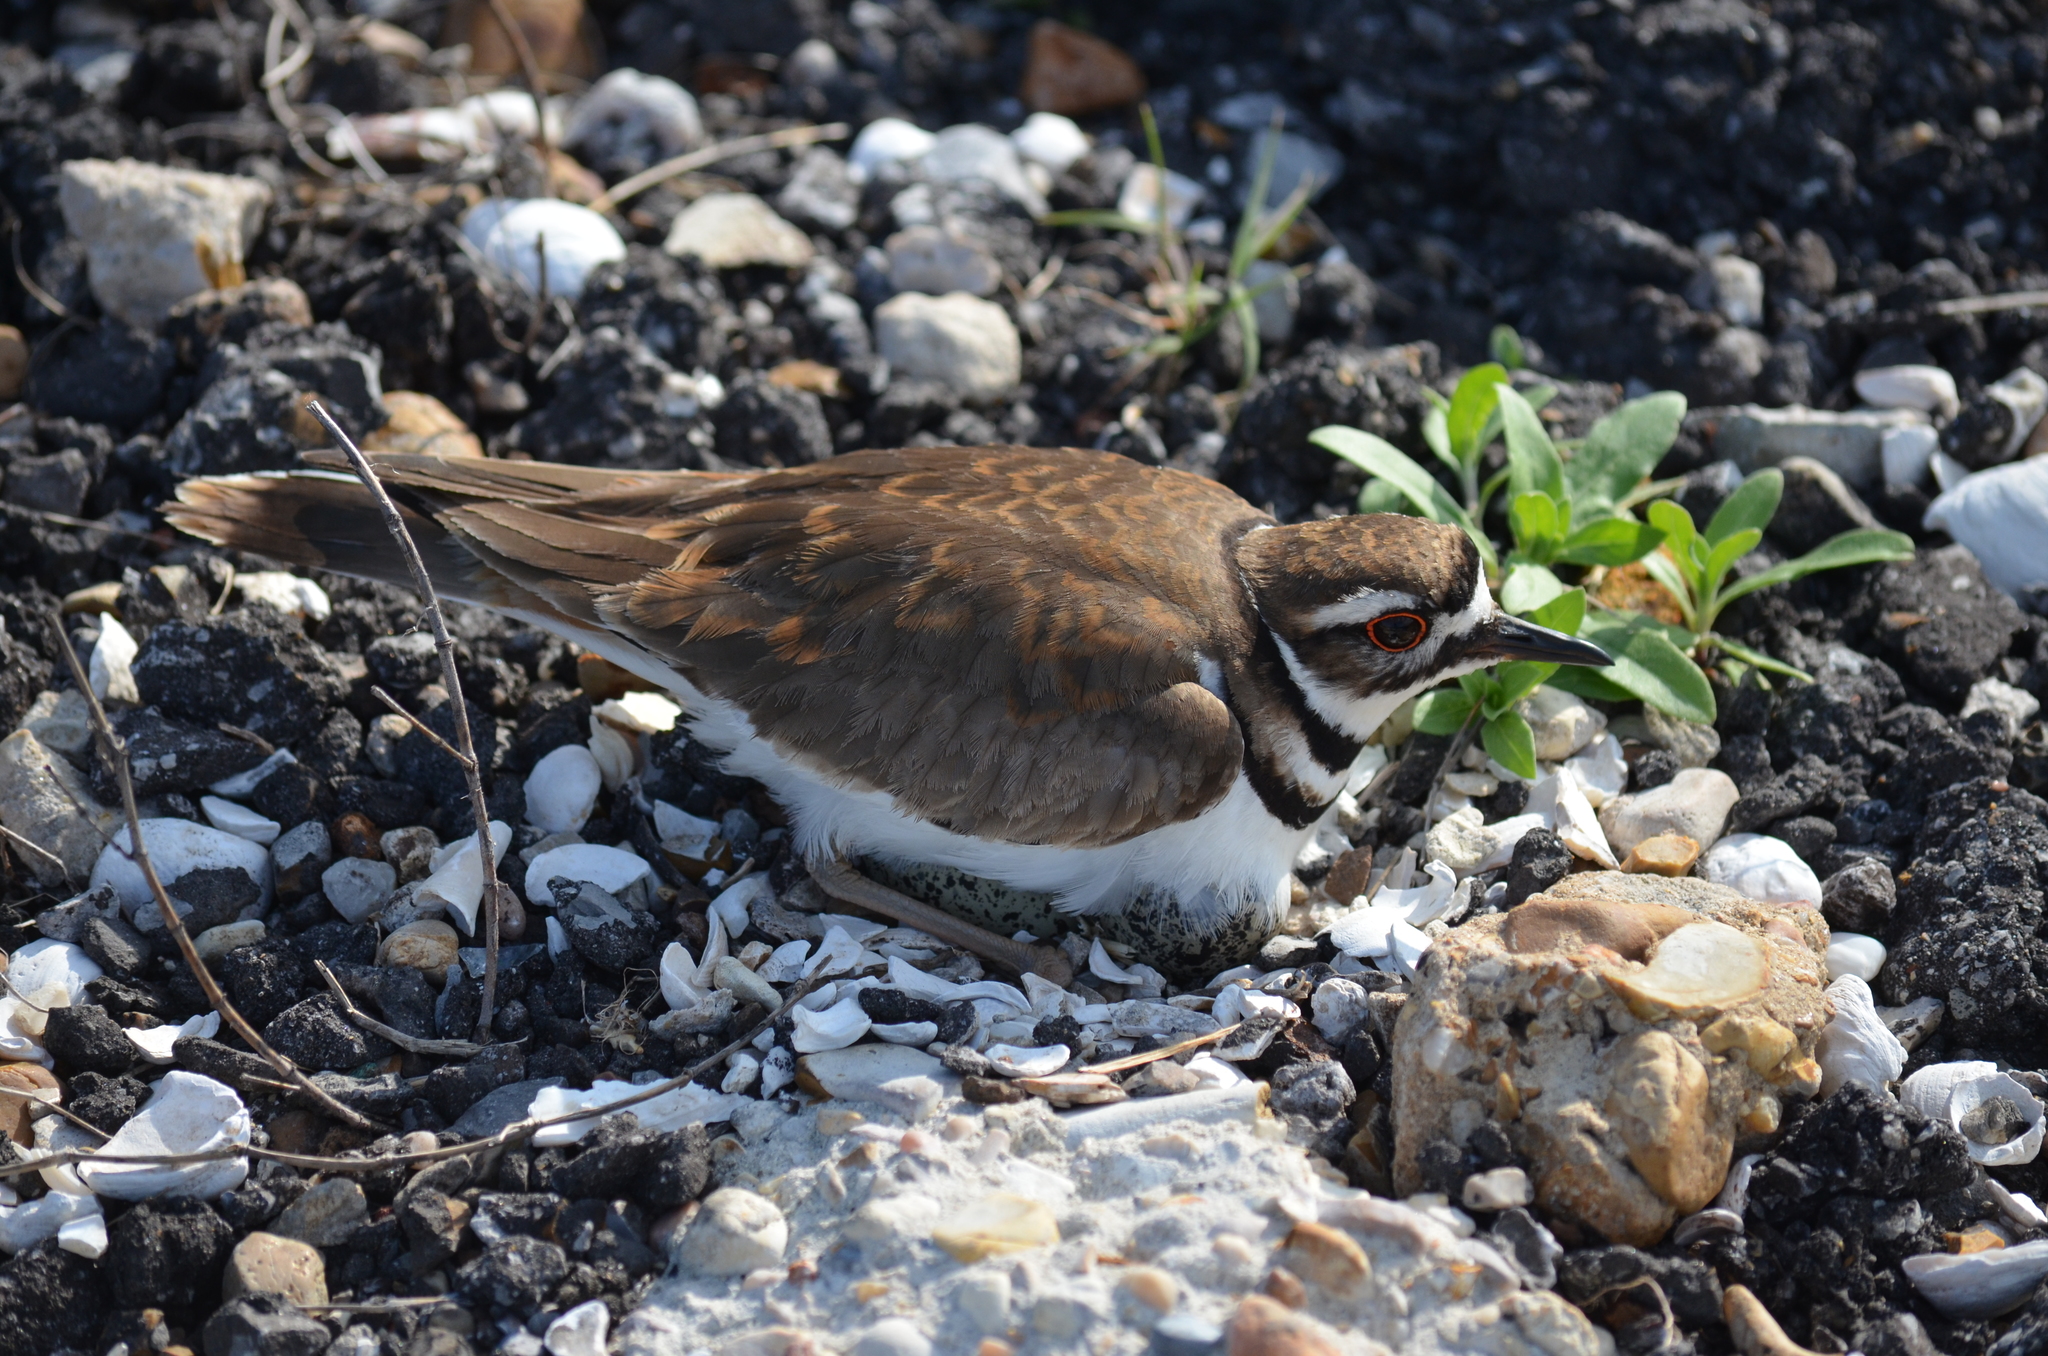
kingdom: Animalia
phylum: Chordata
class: Aves
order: Charadriiformes
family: Charadriidae
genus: Charadrius
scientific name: Charadrius vociferus
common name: Killdeer
